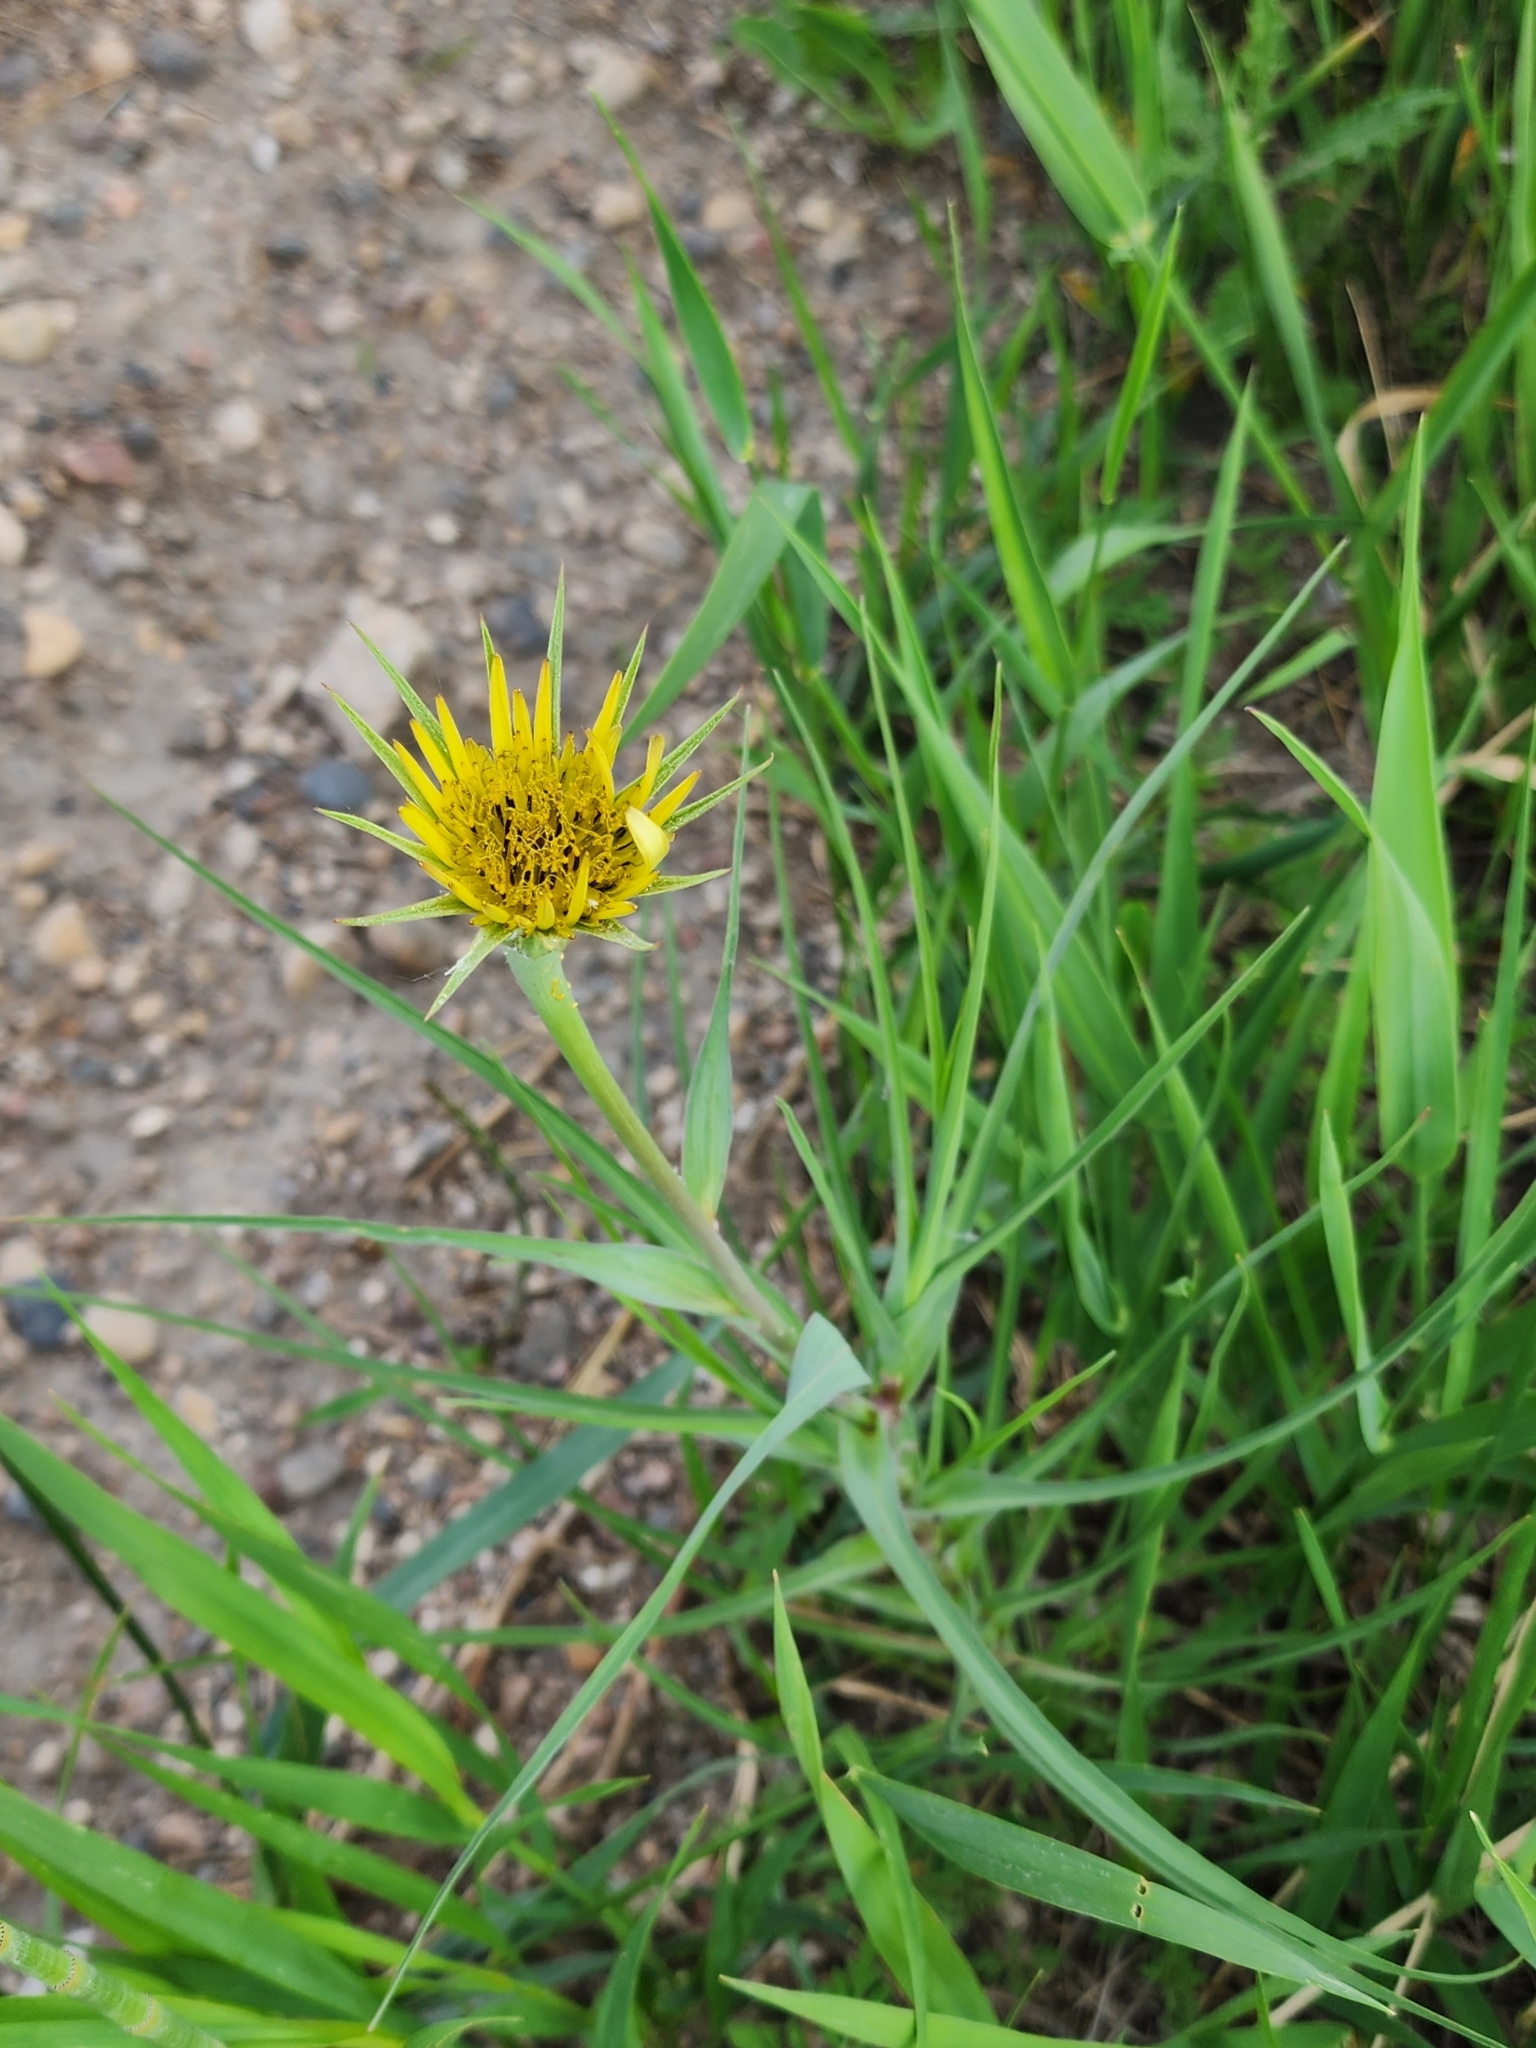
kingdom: Plantae
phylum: Tracheophyta
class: Magnoliopsida
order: Asterales
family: Asteraceae
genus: Tragopogon
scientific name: Tragopogon dubius
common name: Yellow salsify
